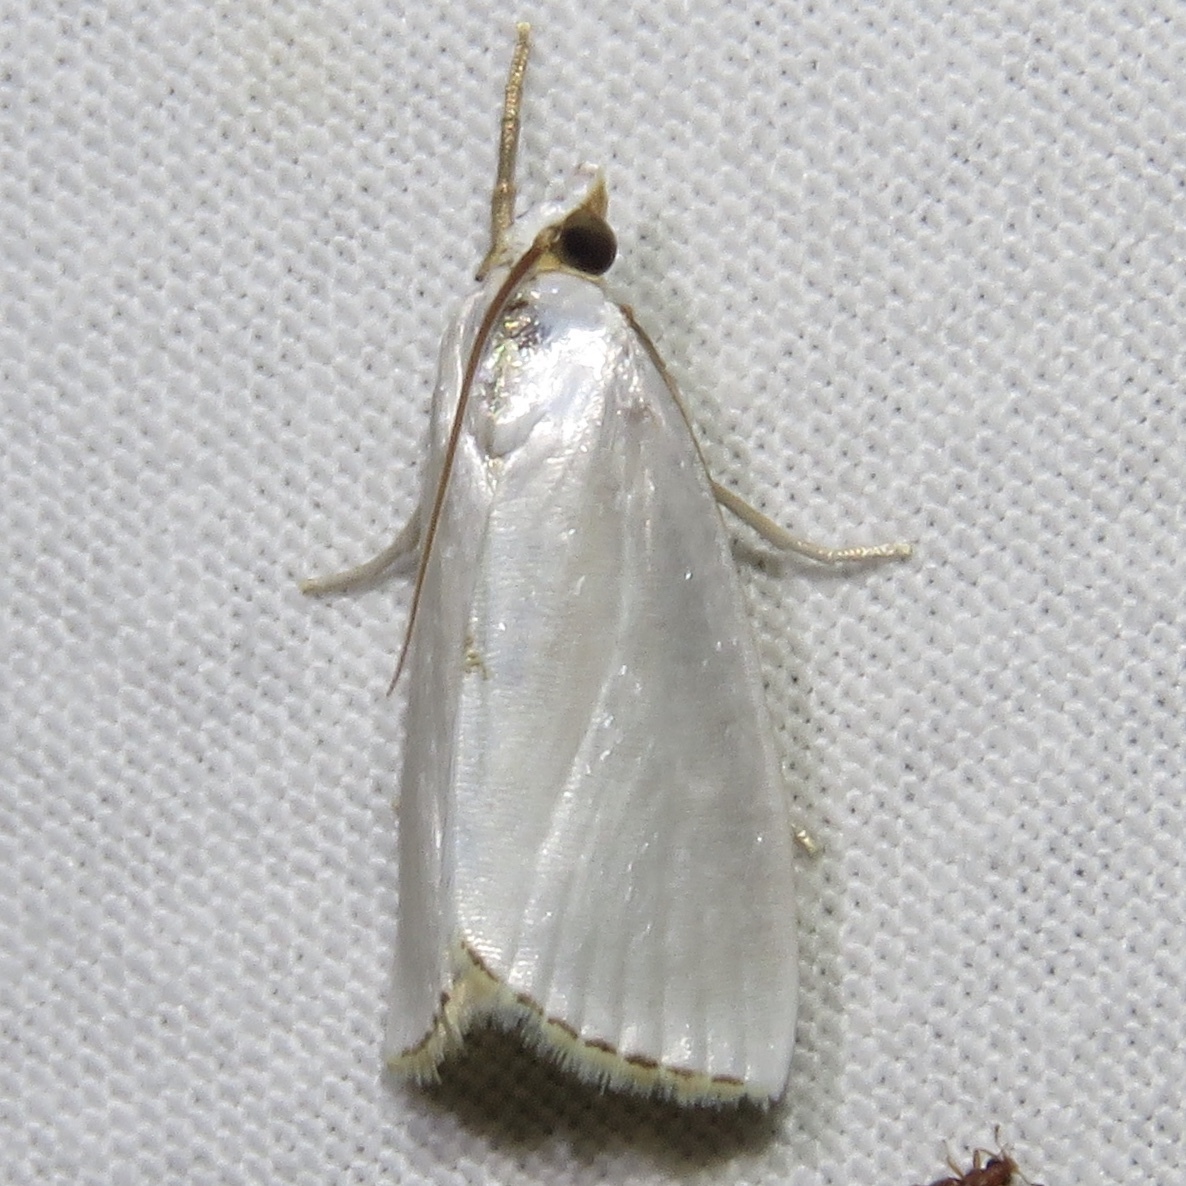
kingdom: Animalia
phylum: Arthropoda
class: Insecta
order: Lepidoptera
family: Crambidae
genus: Argyria
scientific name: Argyria nivalis
